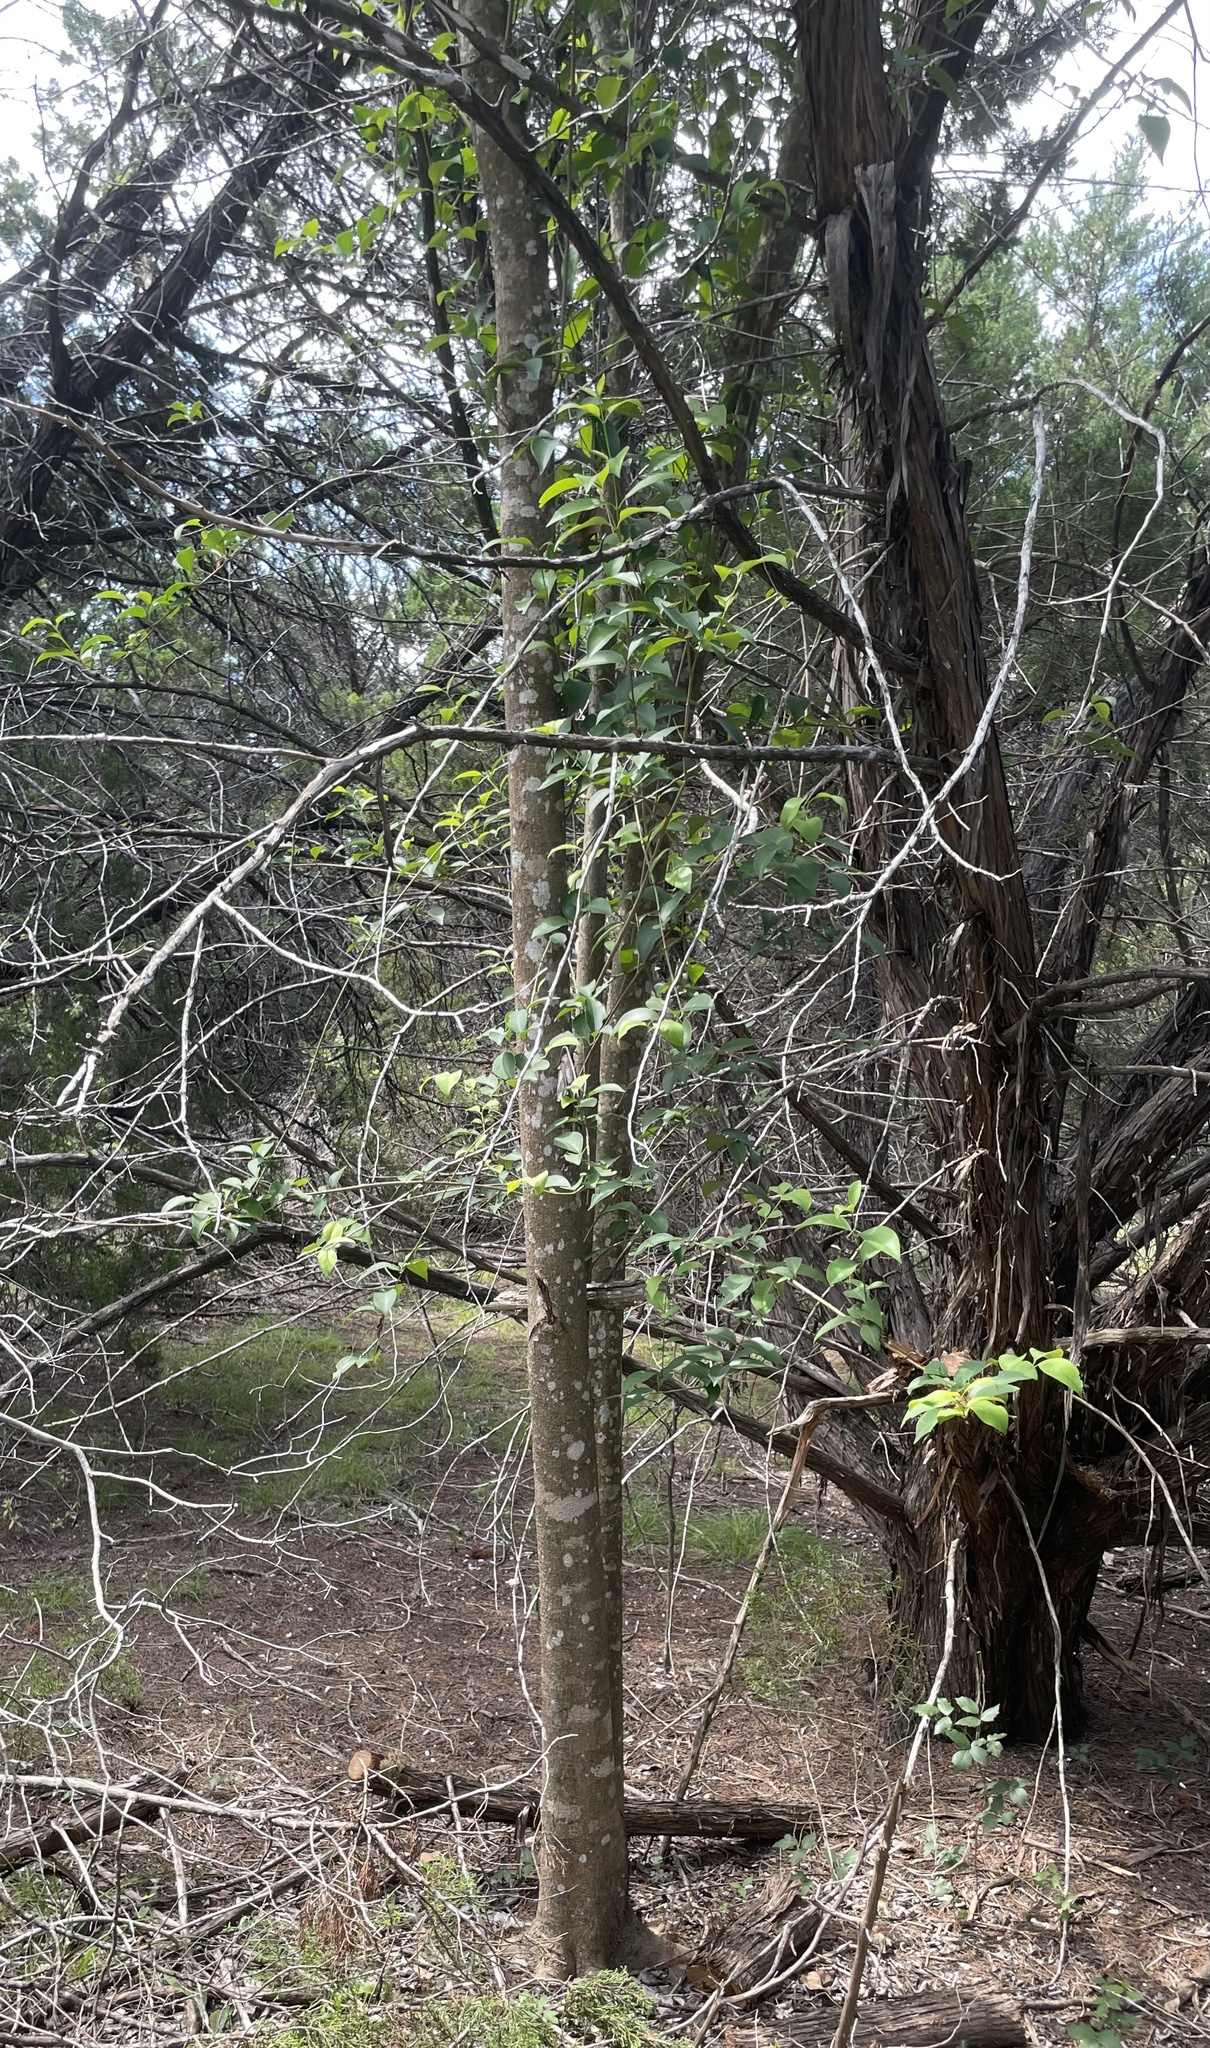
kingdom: Plantae
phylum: Tracheophyta
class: Magnoliopsida
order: Lamiales
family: Oleaceae
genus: Ligustrum
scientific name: Ligustrum lucidum
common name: Glossy privet
